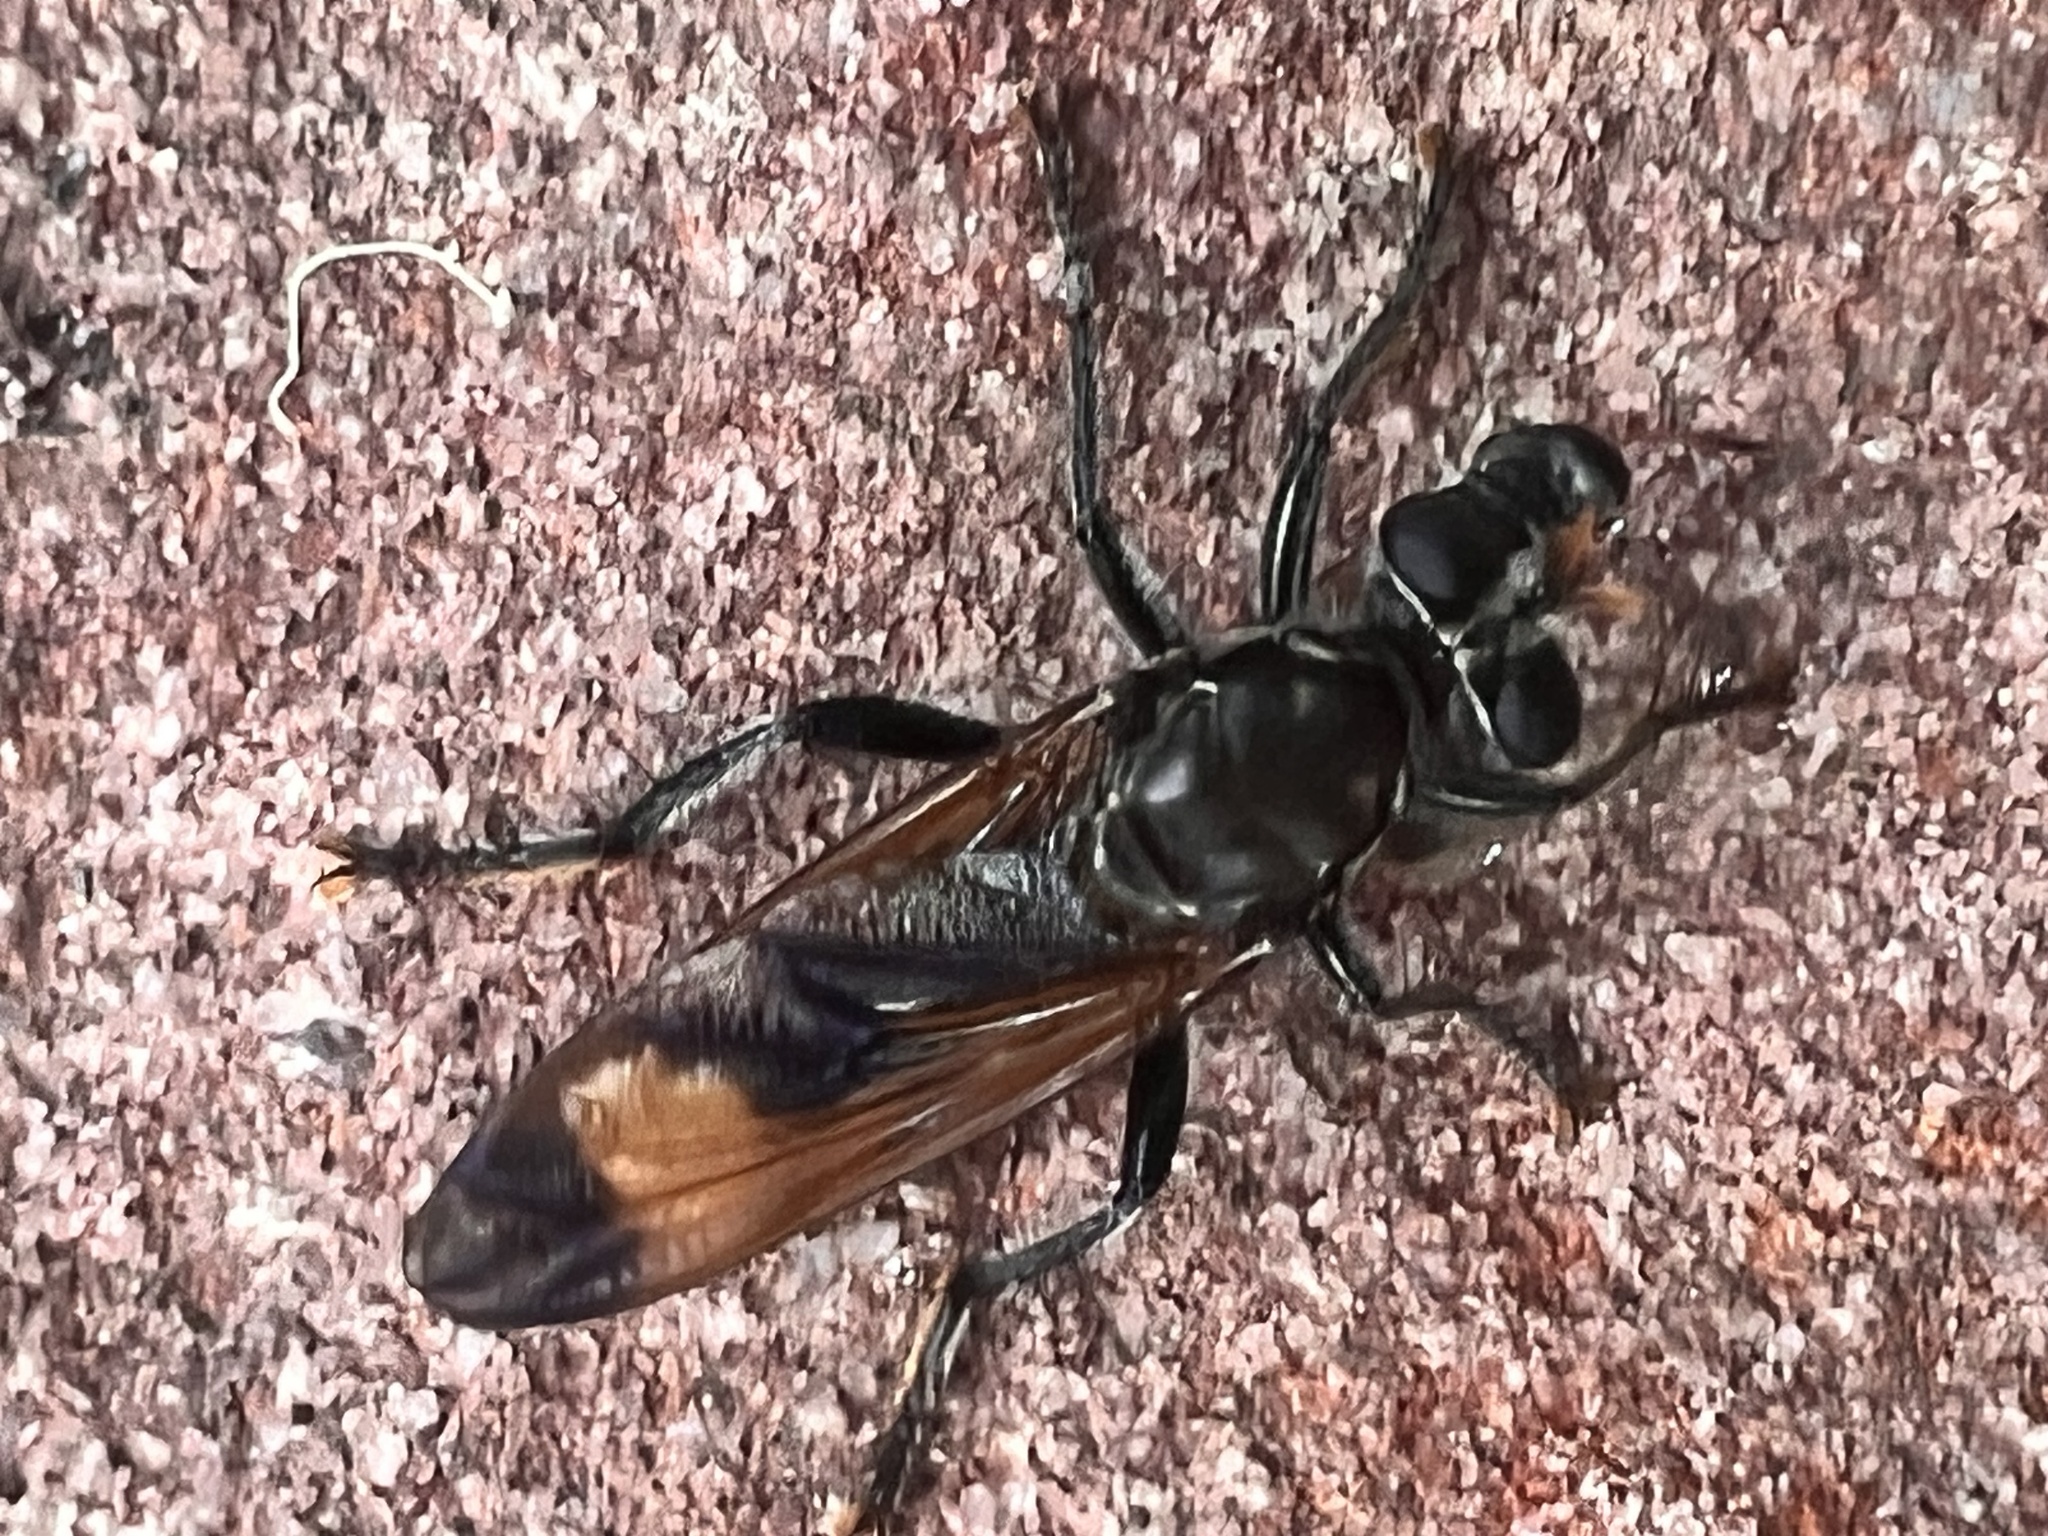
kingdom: Animalia
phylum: Arthropoda
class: Insecta
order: Diptera
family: Asilidae
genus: Orthogonis
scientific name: Orthogonis ornatipennis
